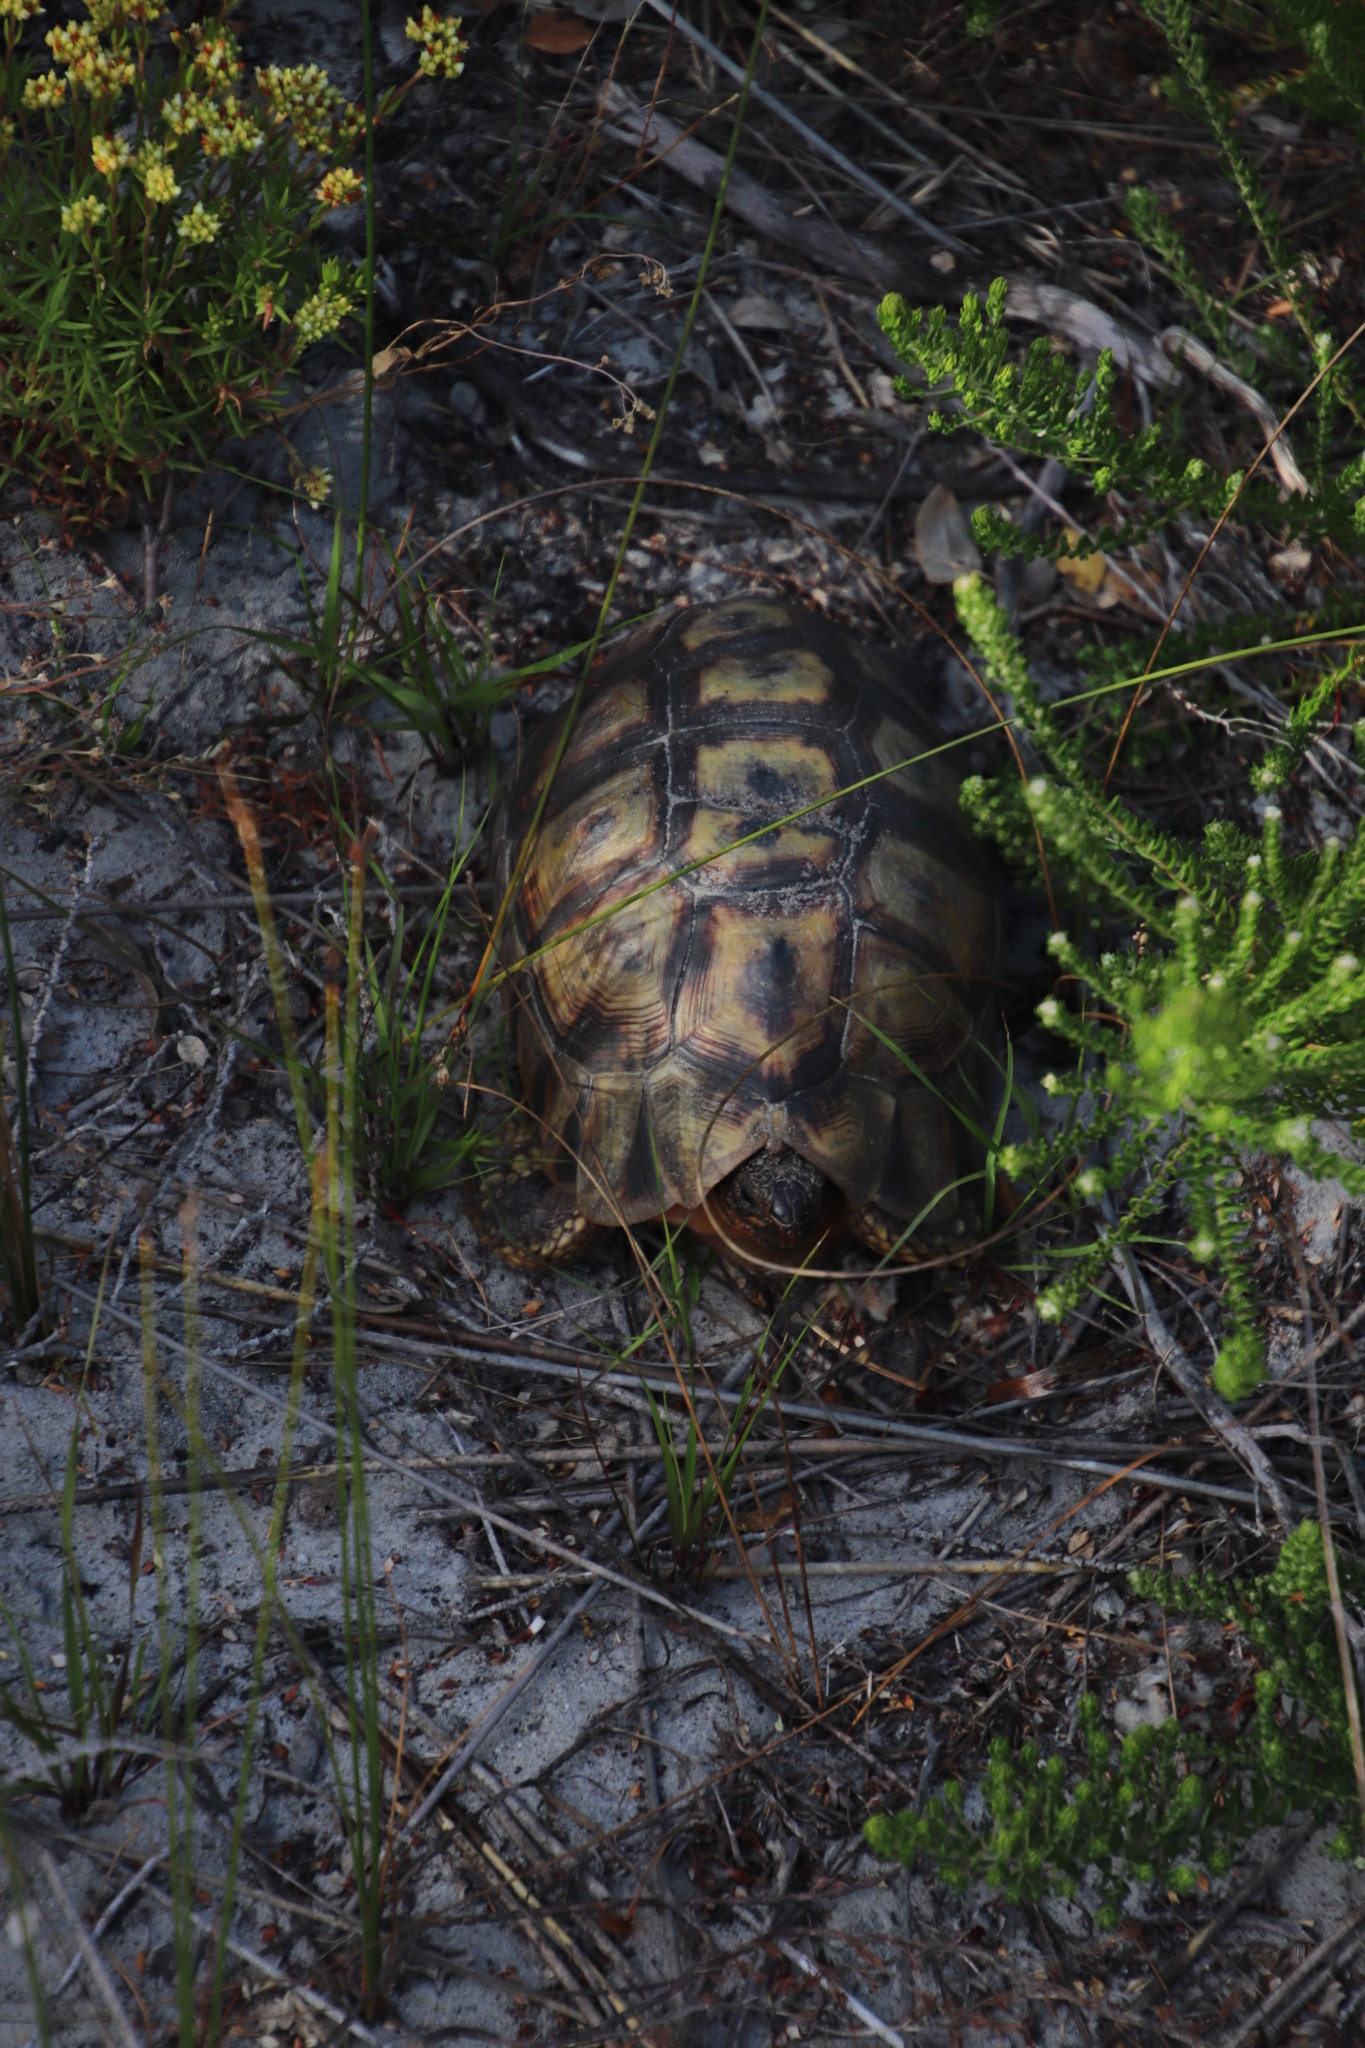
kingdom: Animalia
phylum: Chordata
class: Testudines
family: Testudinidae
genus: Chersina
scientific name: Chersina angulata
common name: South african bowsprit tortoise
